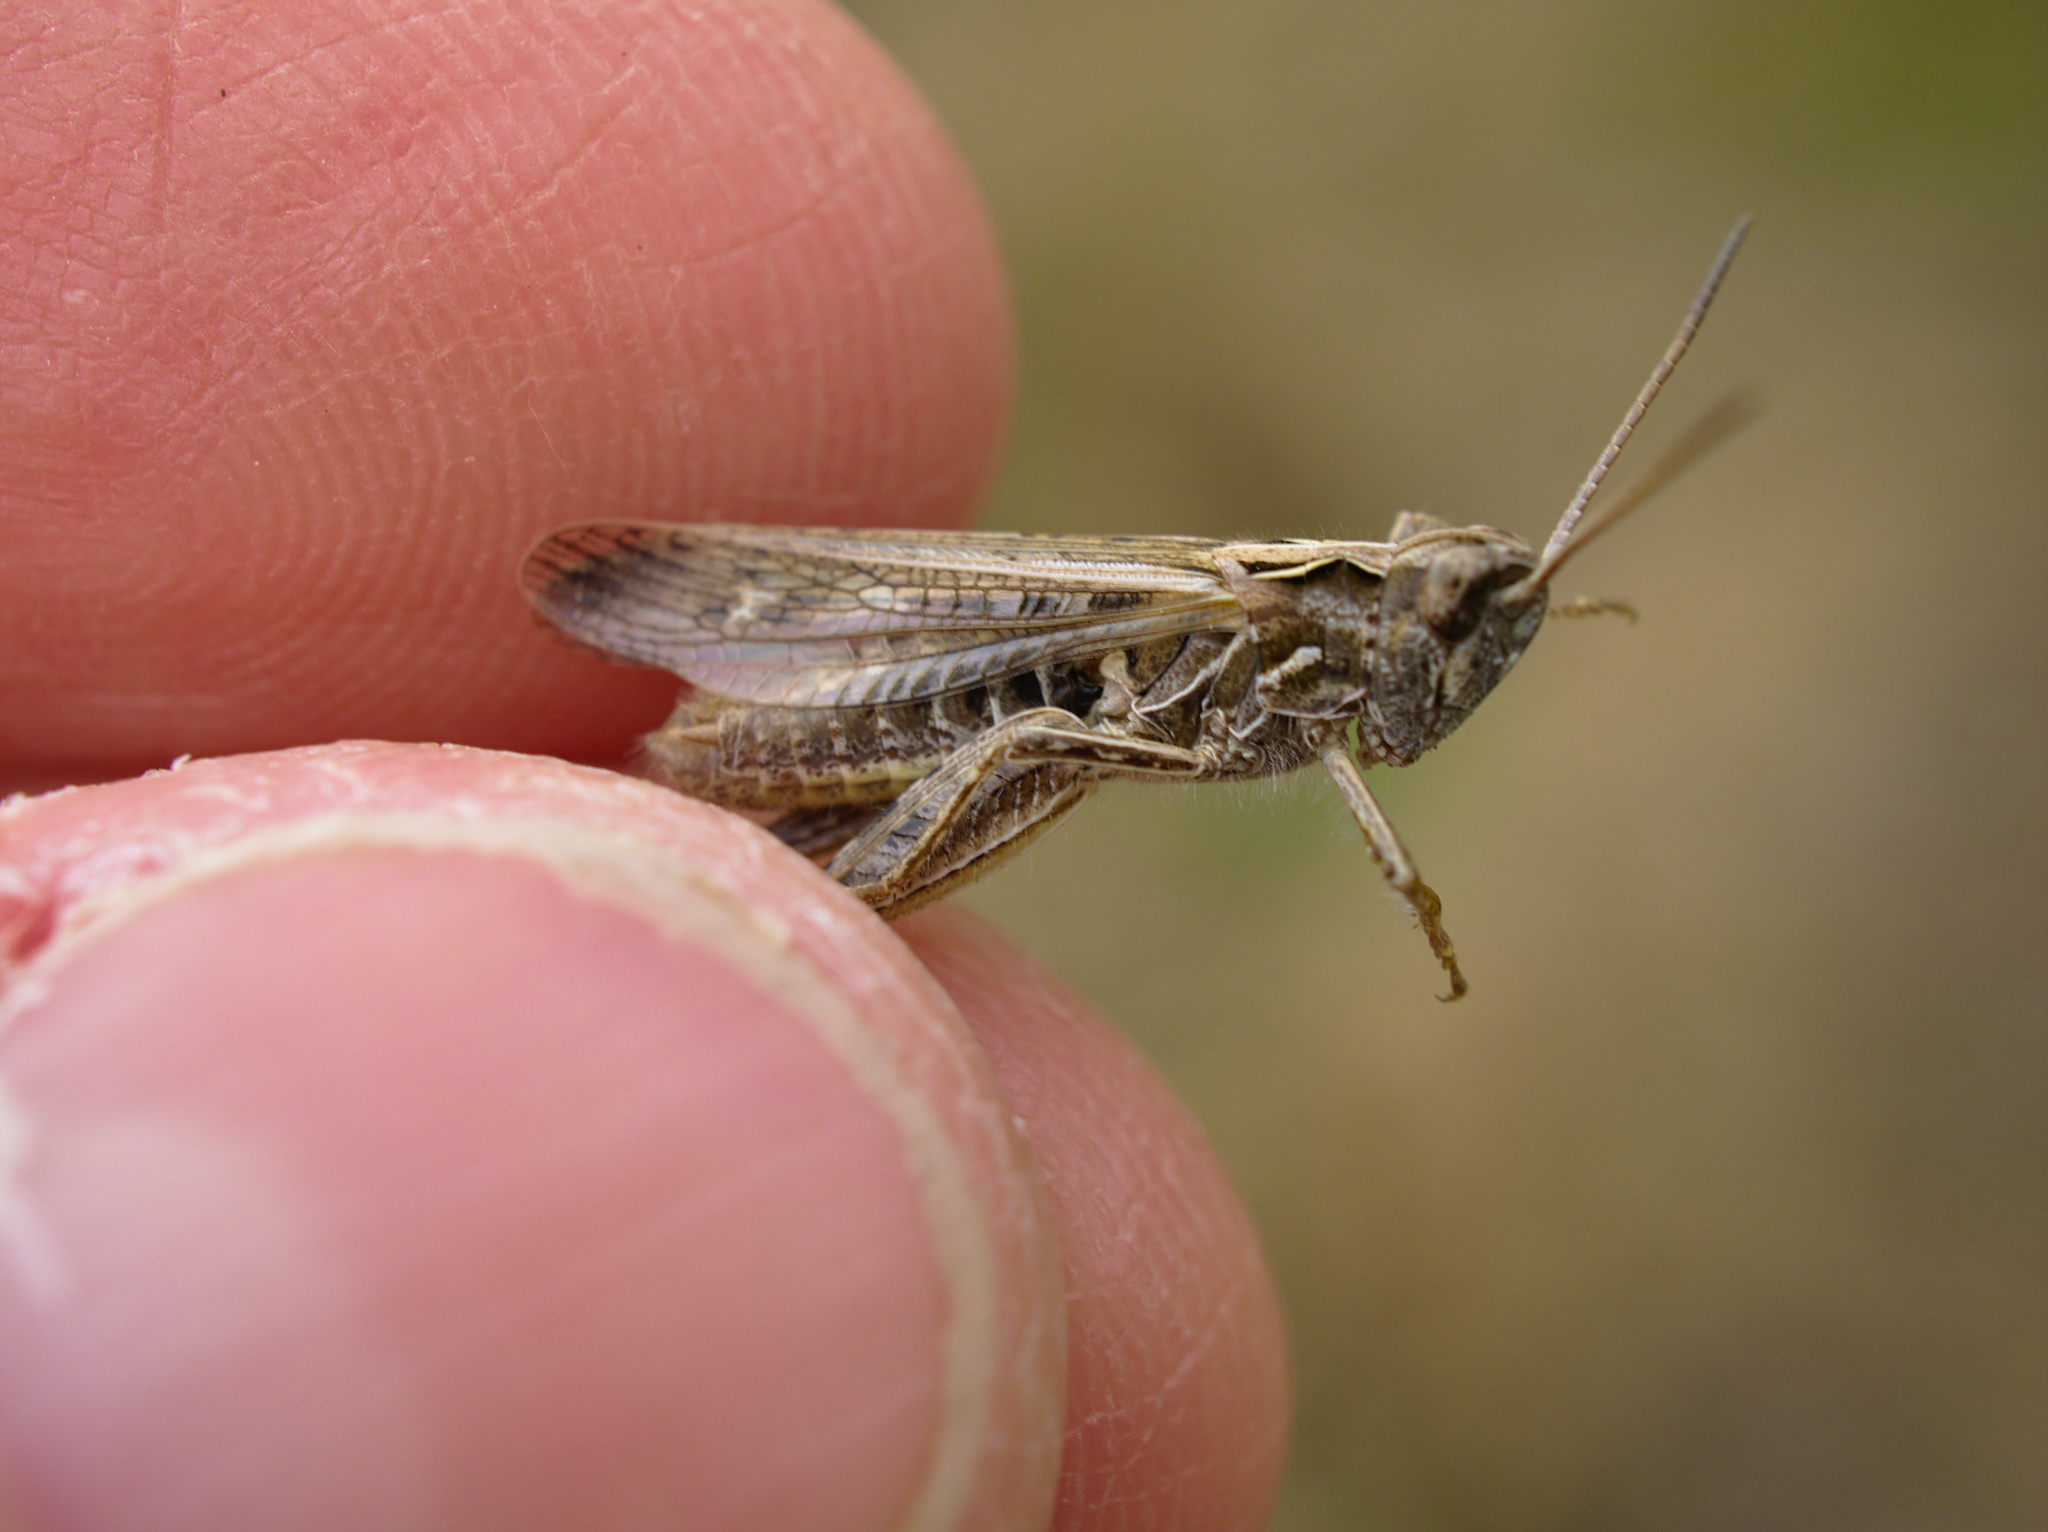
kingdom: Animalia
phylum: Arthropoda
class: Insecta
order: Orthoptera
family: Acrididae
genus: Chorthippus
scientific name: Chorthippus biguttulus
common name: Bow-winged grasshopper
